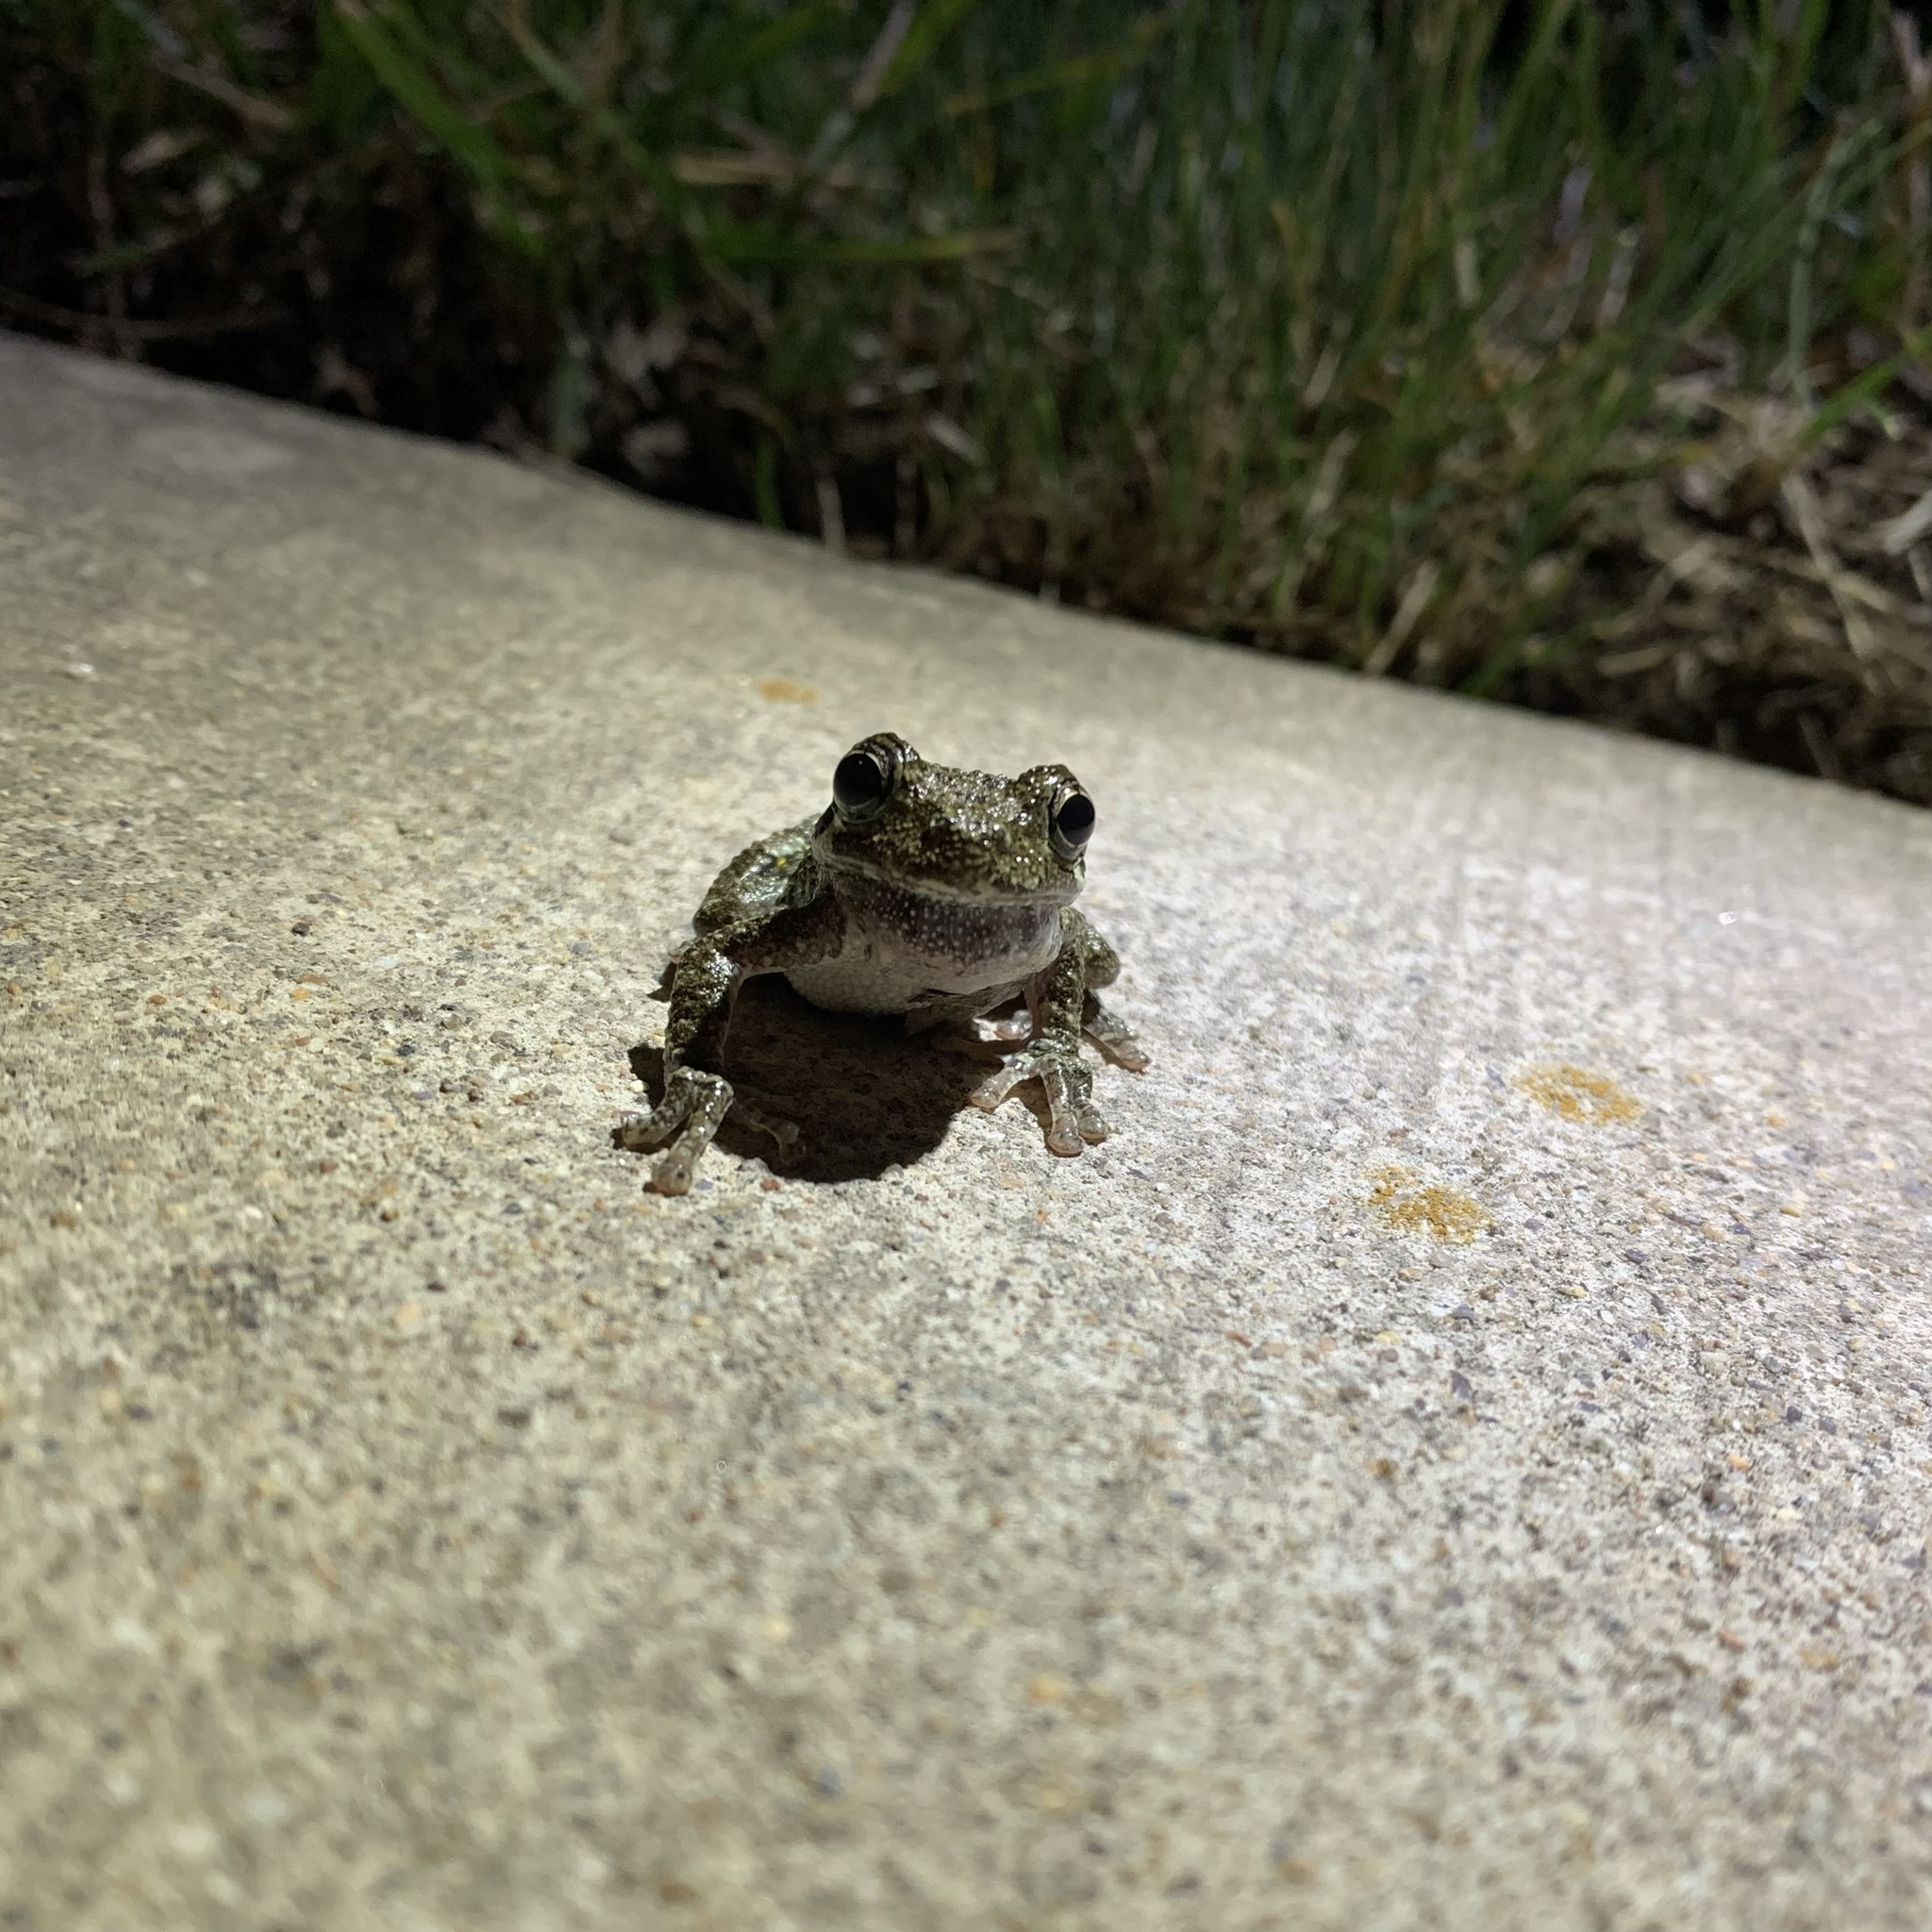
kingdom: Animalia
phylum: Chordata
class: Amphibia
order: Anura
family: Hylidae
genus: Hyla
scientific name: Hyla
